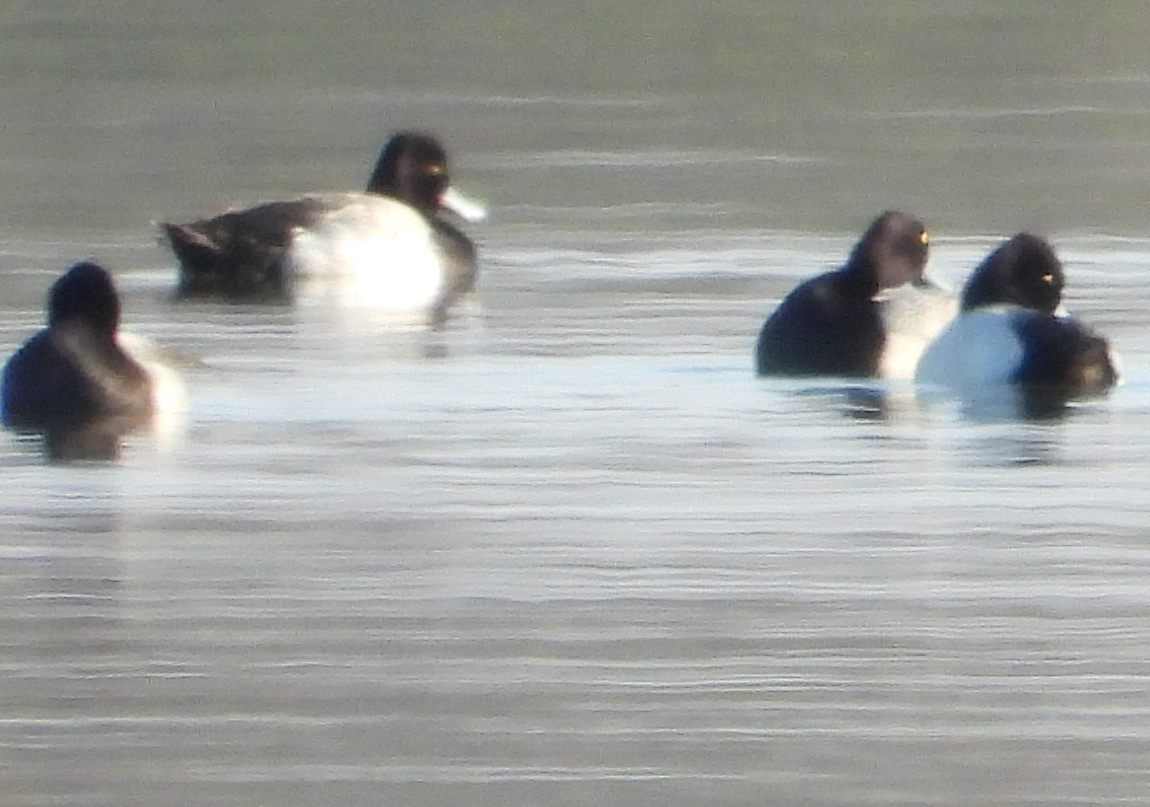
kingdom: Animalia
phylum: Chordata
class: Aves
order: Anseriformes
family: Anatidae
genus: Aythya
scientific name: Aythya affinis
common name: Lesser scaup
